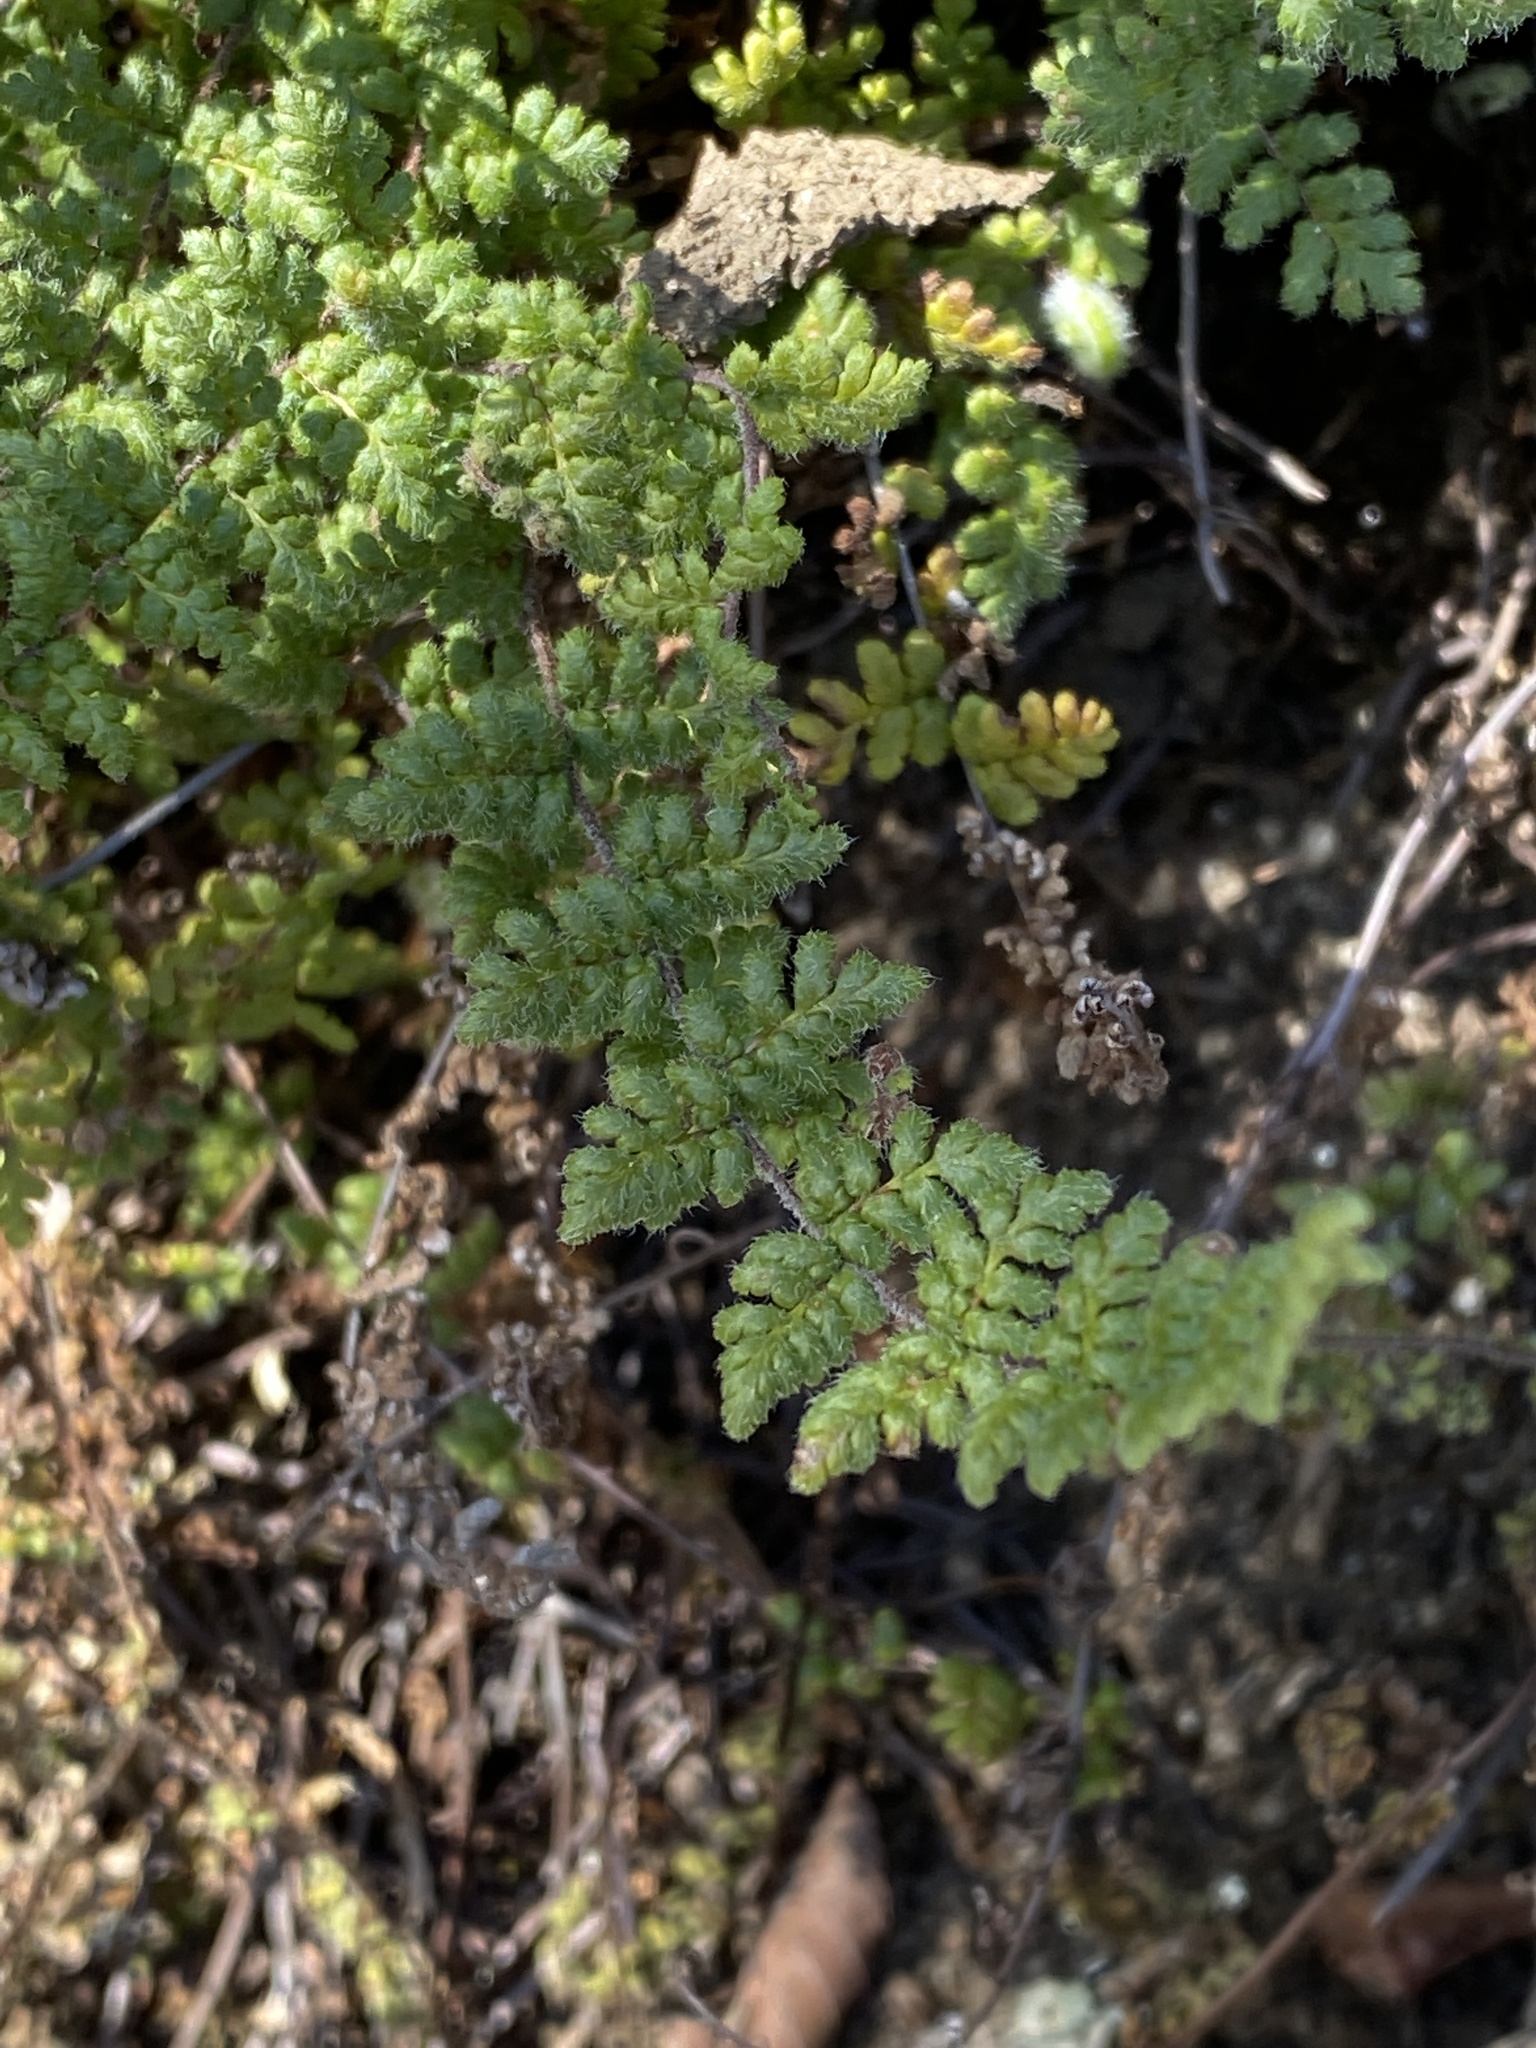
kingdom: Plantae
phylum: Tracheophyta
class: Polypodiopsida
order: Polypodiales
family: Pteridaceae
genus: Myriopteris
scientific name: Myriopteris lanosa
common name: Hairy lip fern
